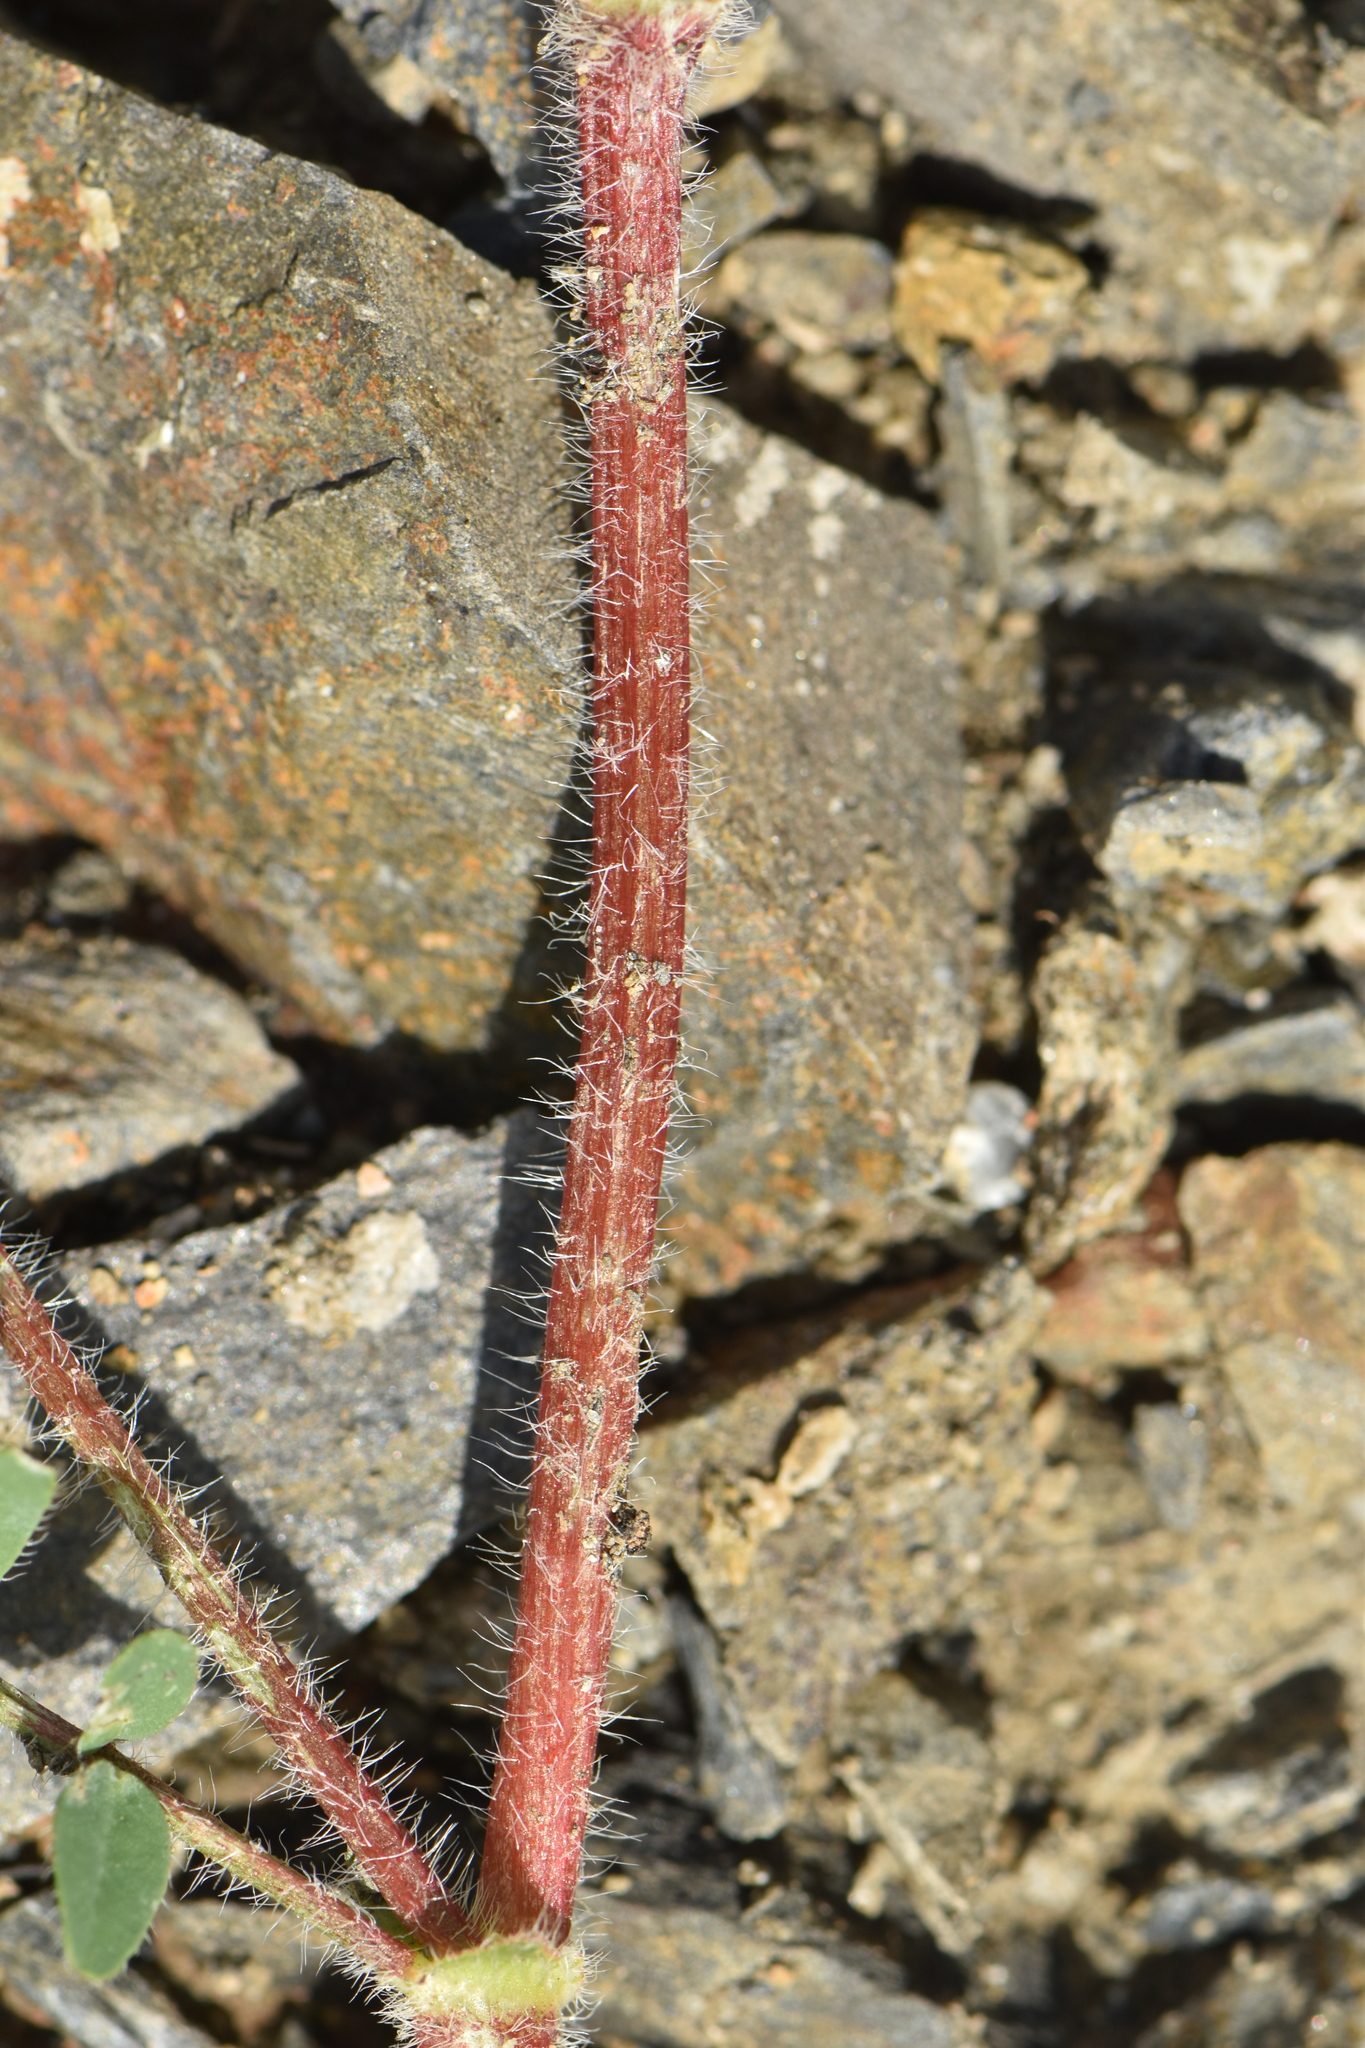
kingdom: Plantae
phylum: Tracheophyta
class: Magnoliopsida
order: Fabales
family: Fabaceae
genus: Astragalus
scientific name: Astragalus echinatus
